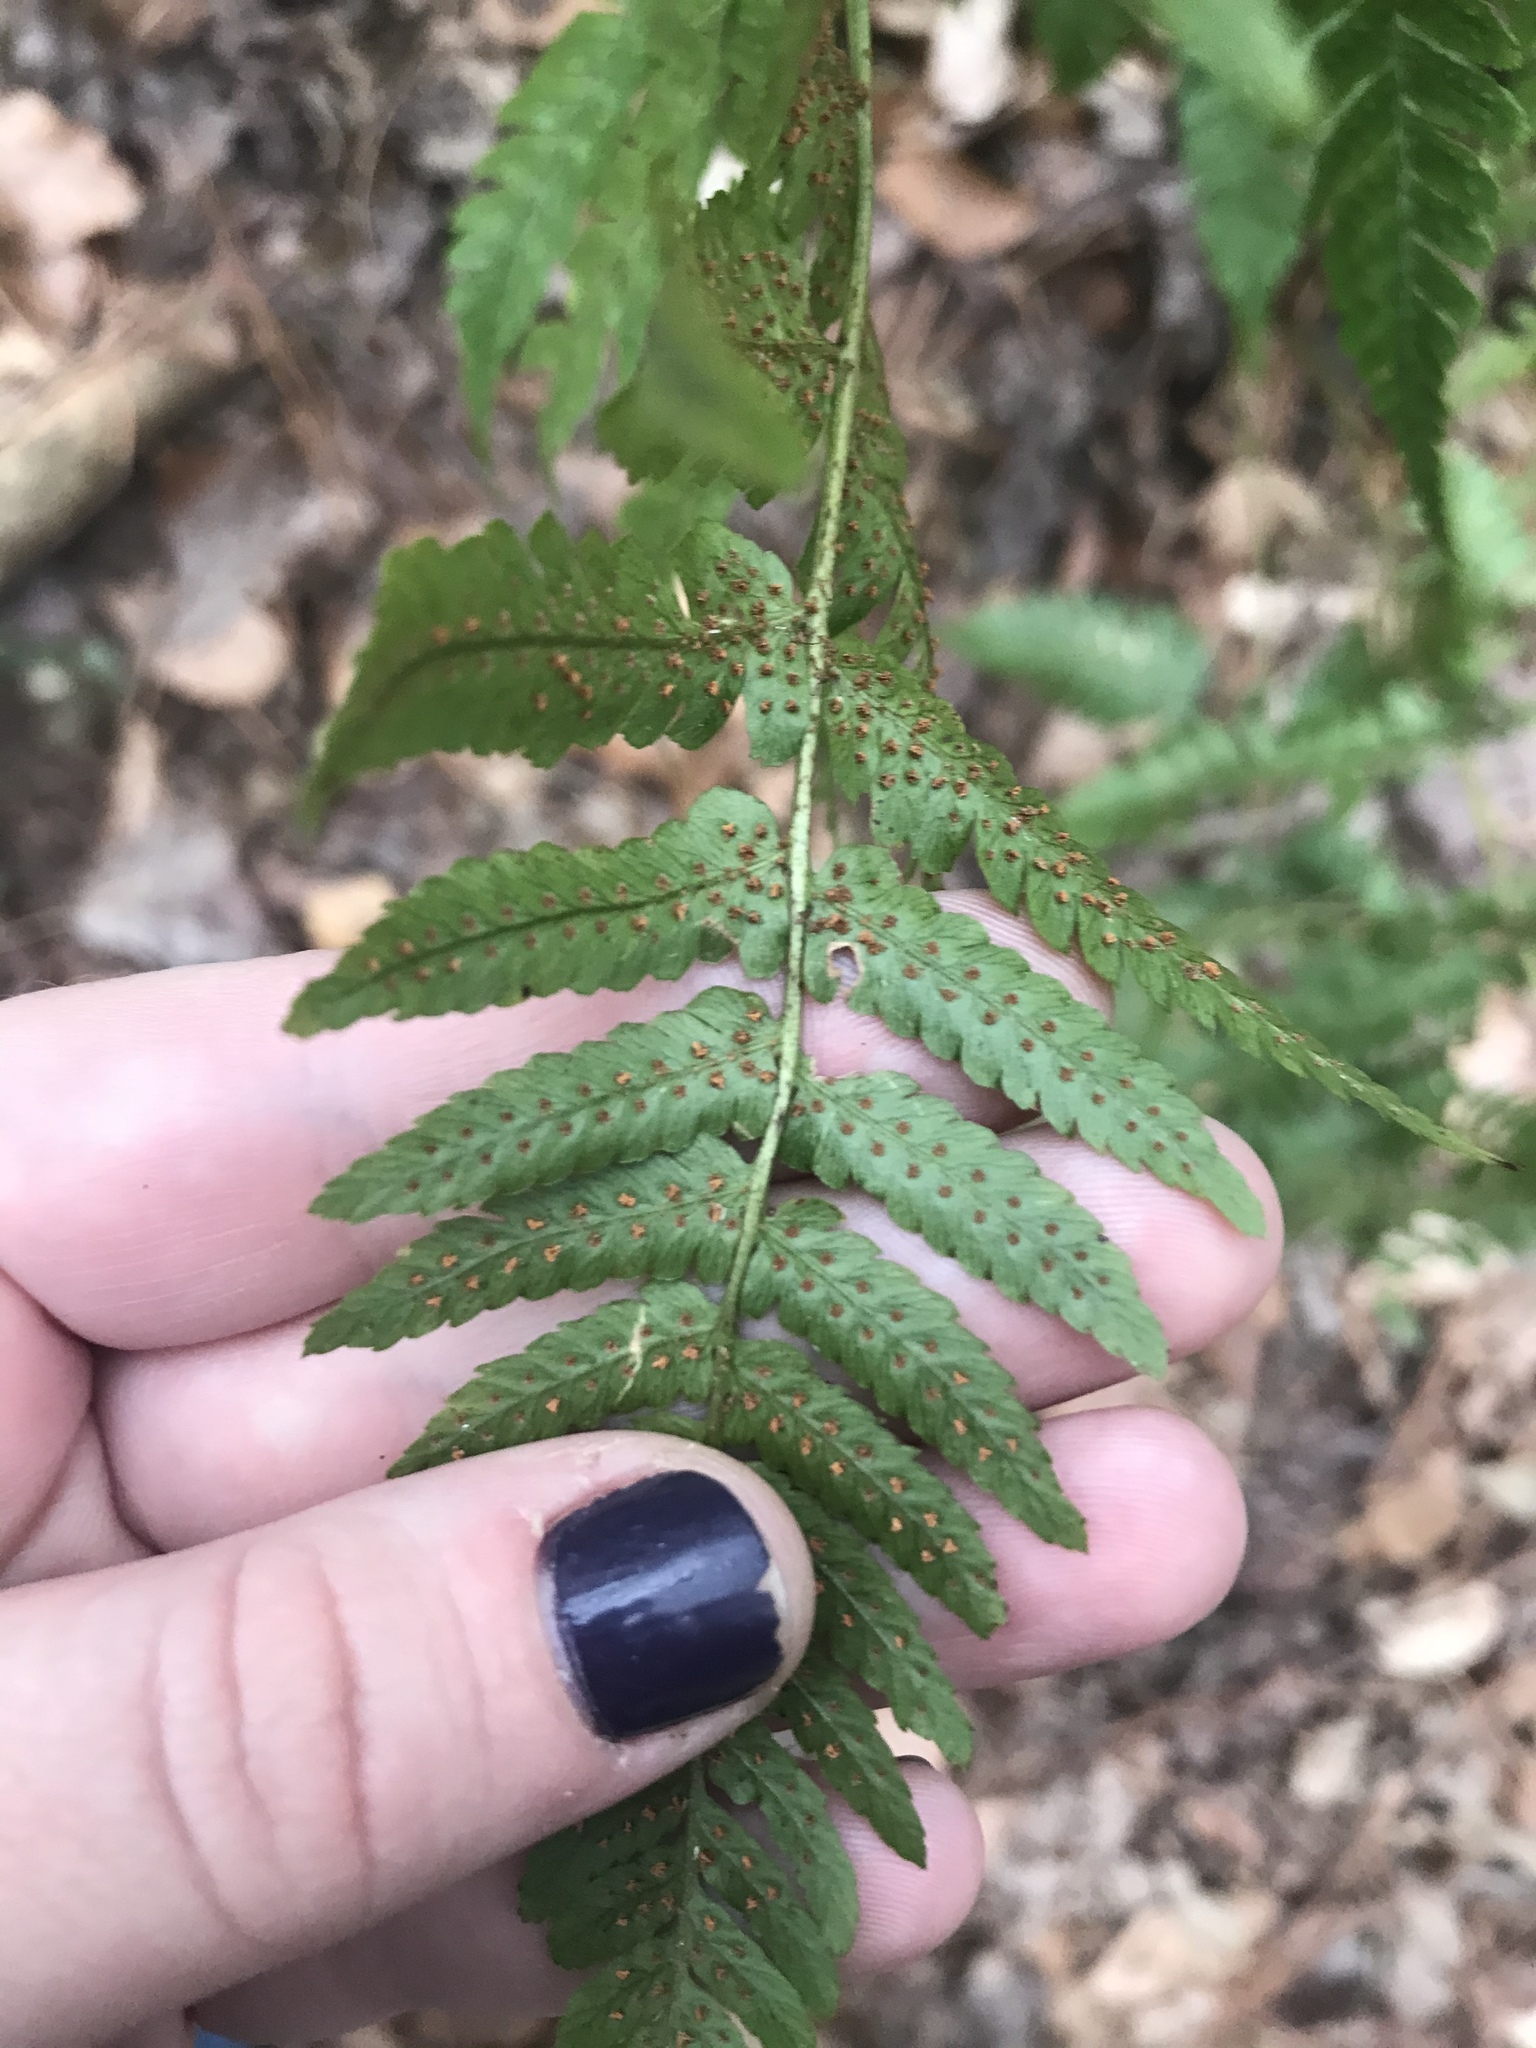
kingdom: Plantae
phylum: Tracheophyta
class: Polypodiopsida
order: Polypodiales
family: Dryopteridaceae
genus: Dryopteris
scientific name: Dryopteris erythrosora
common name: Autumn fern
